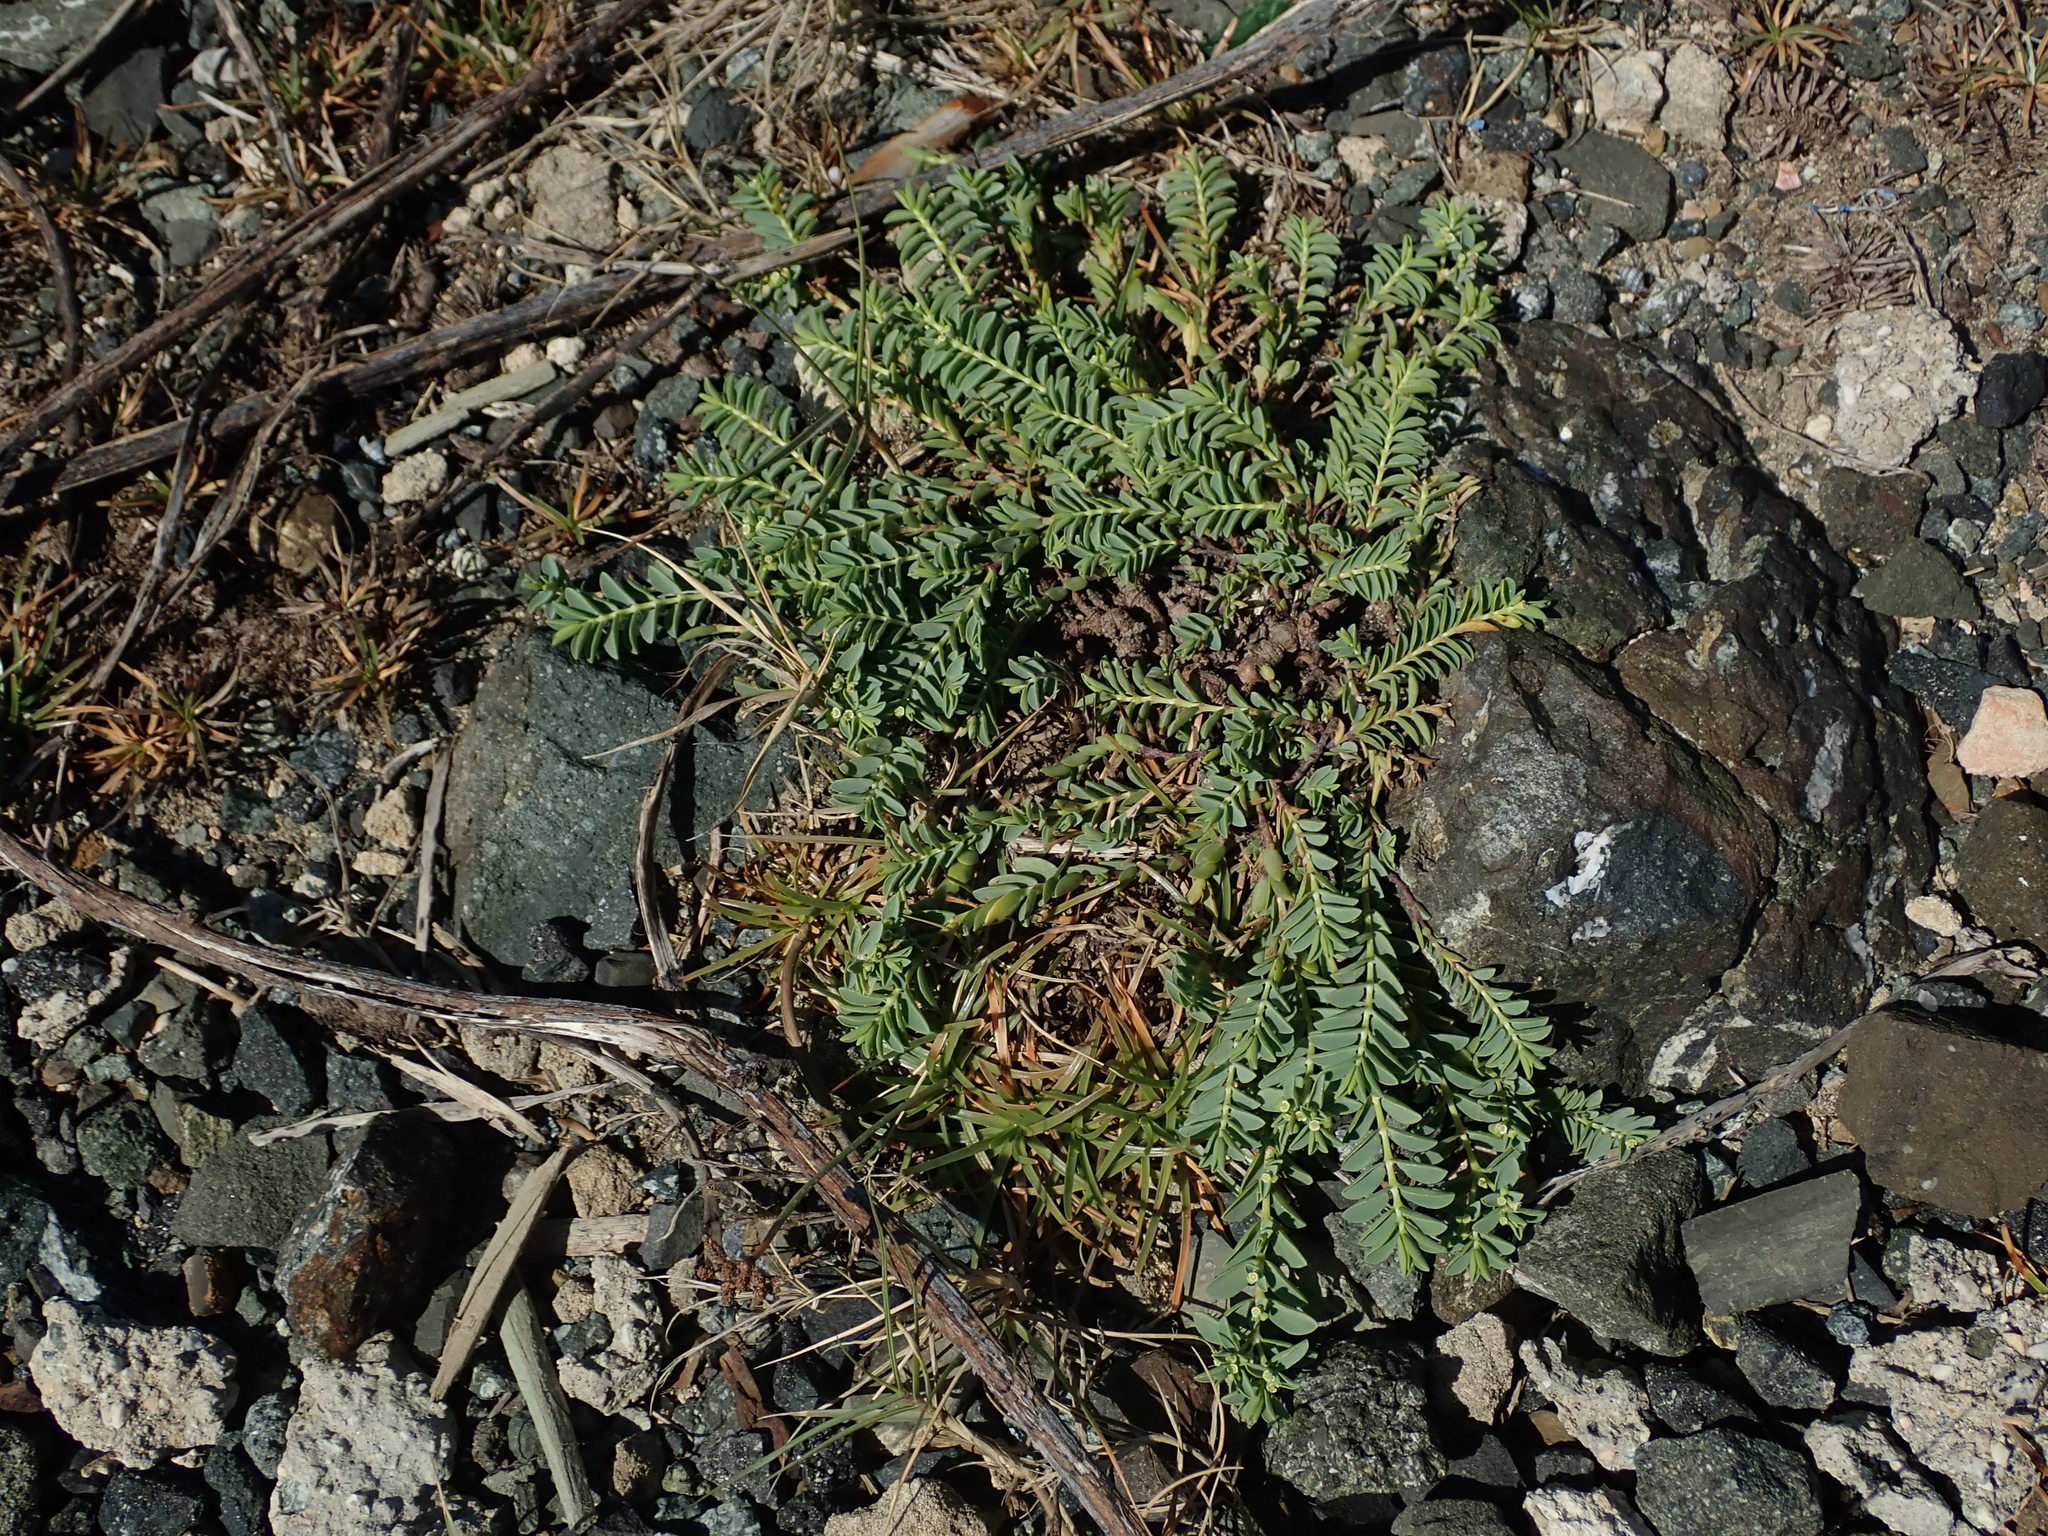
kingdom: Plantae
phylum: Tracheophyta
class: Magnoliopsida
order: Malpighiales
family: Euphorbiaceae
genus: Euphorbia
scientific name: Euphorbia mesembryanthemifolia
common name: Coastal beach sandmat
